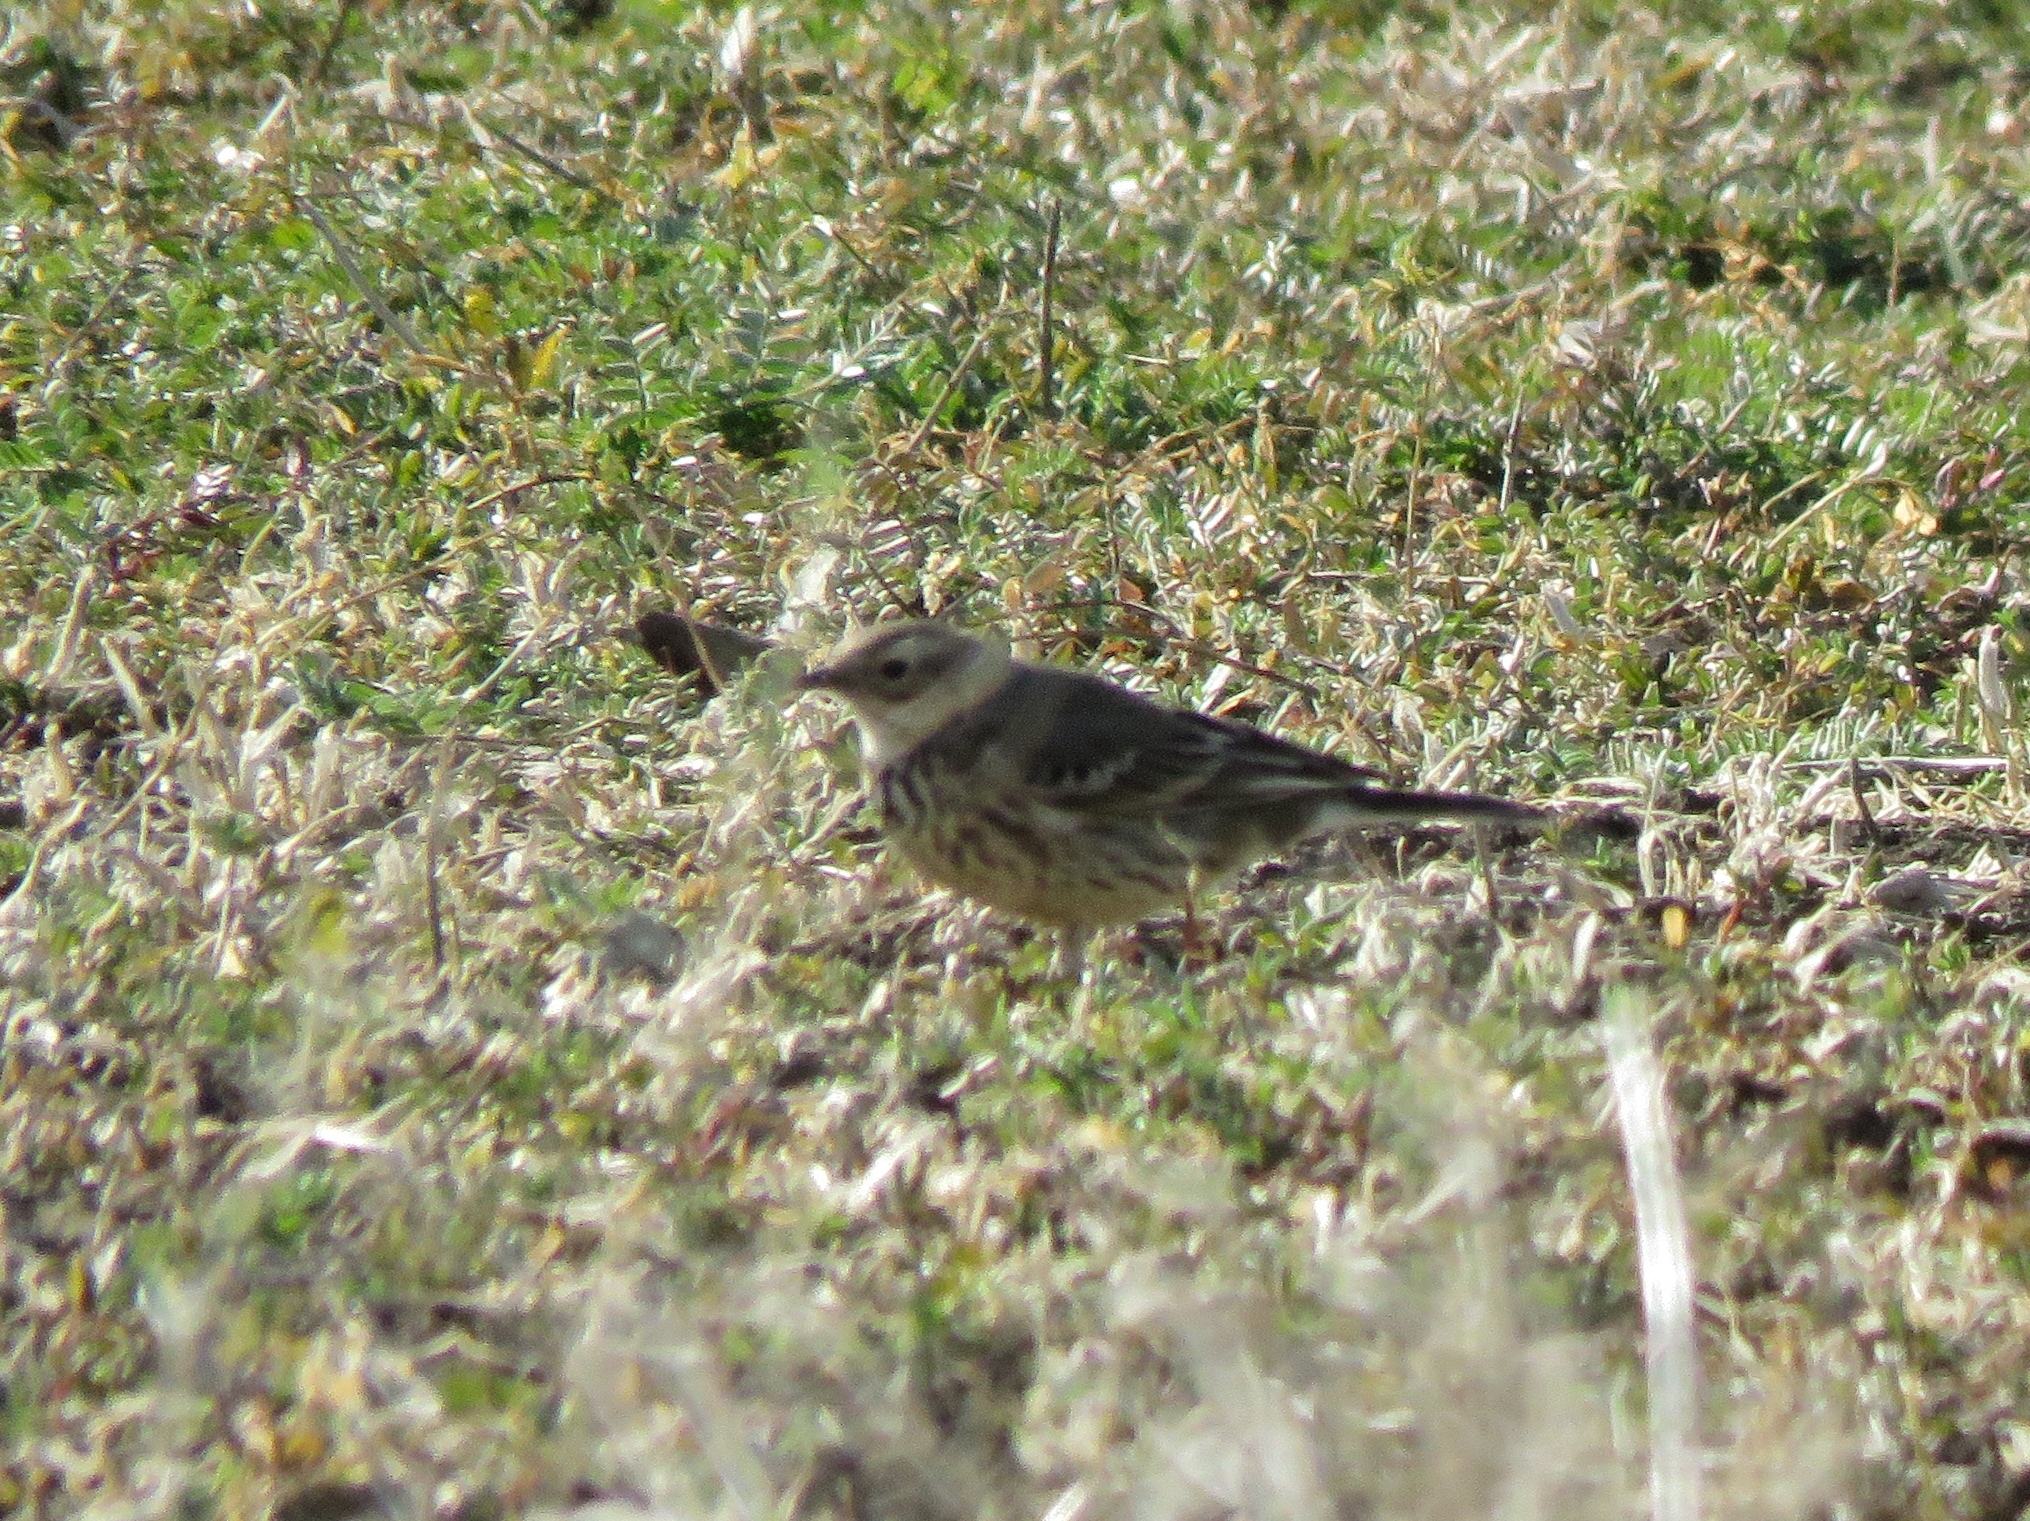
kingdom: Animalia
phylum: Chordata
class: Aves
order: Passeriformes
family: Motacillidae
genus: Anthus
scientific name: Anthus rubescens
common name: Buff-bellied pipit
